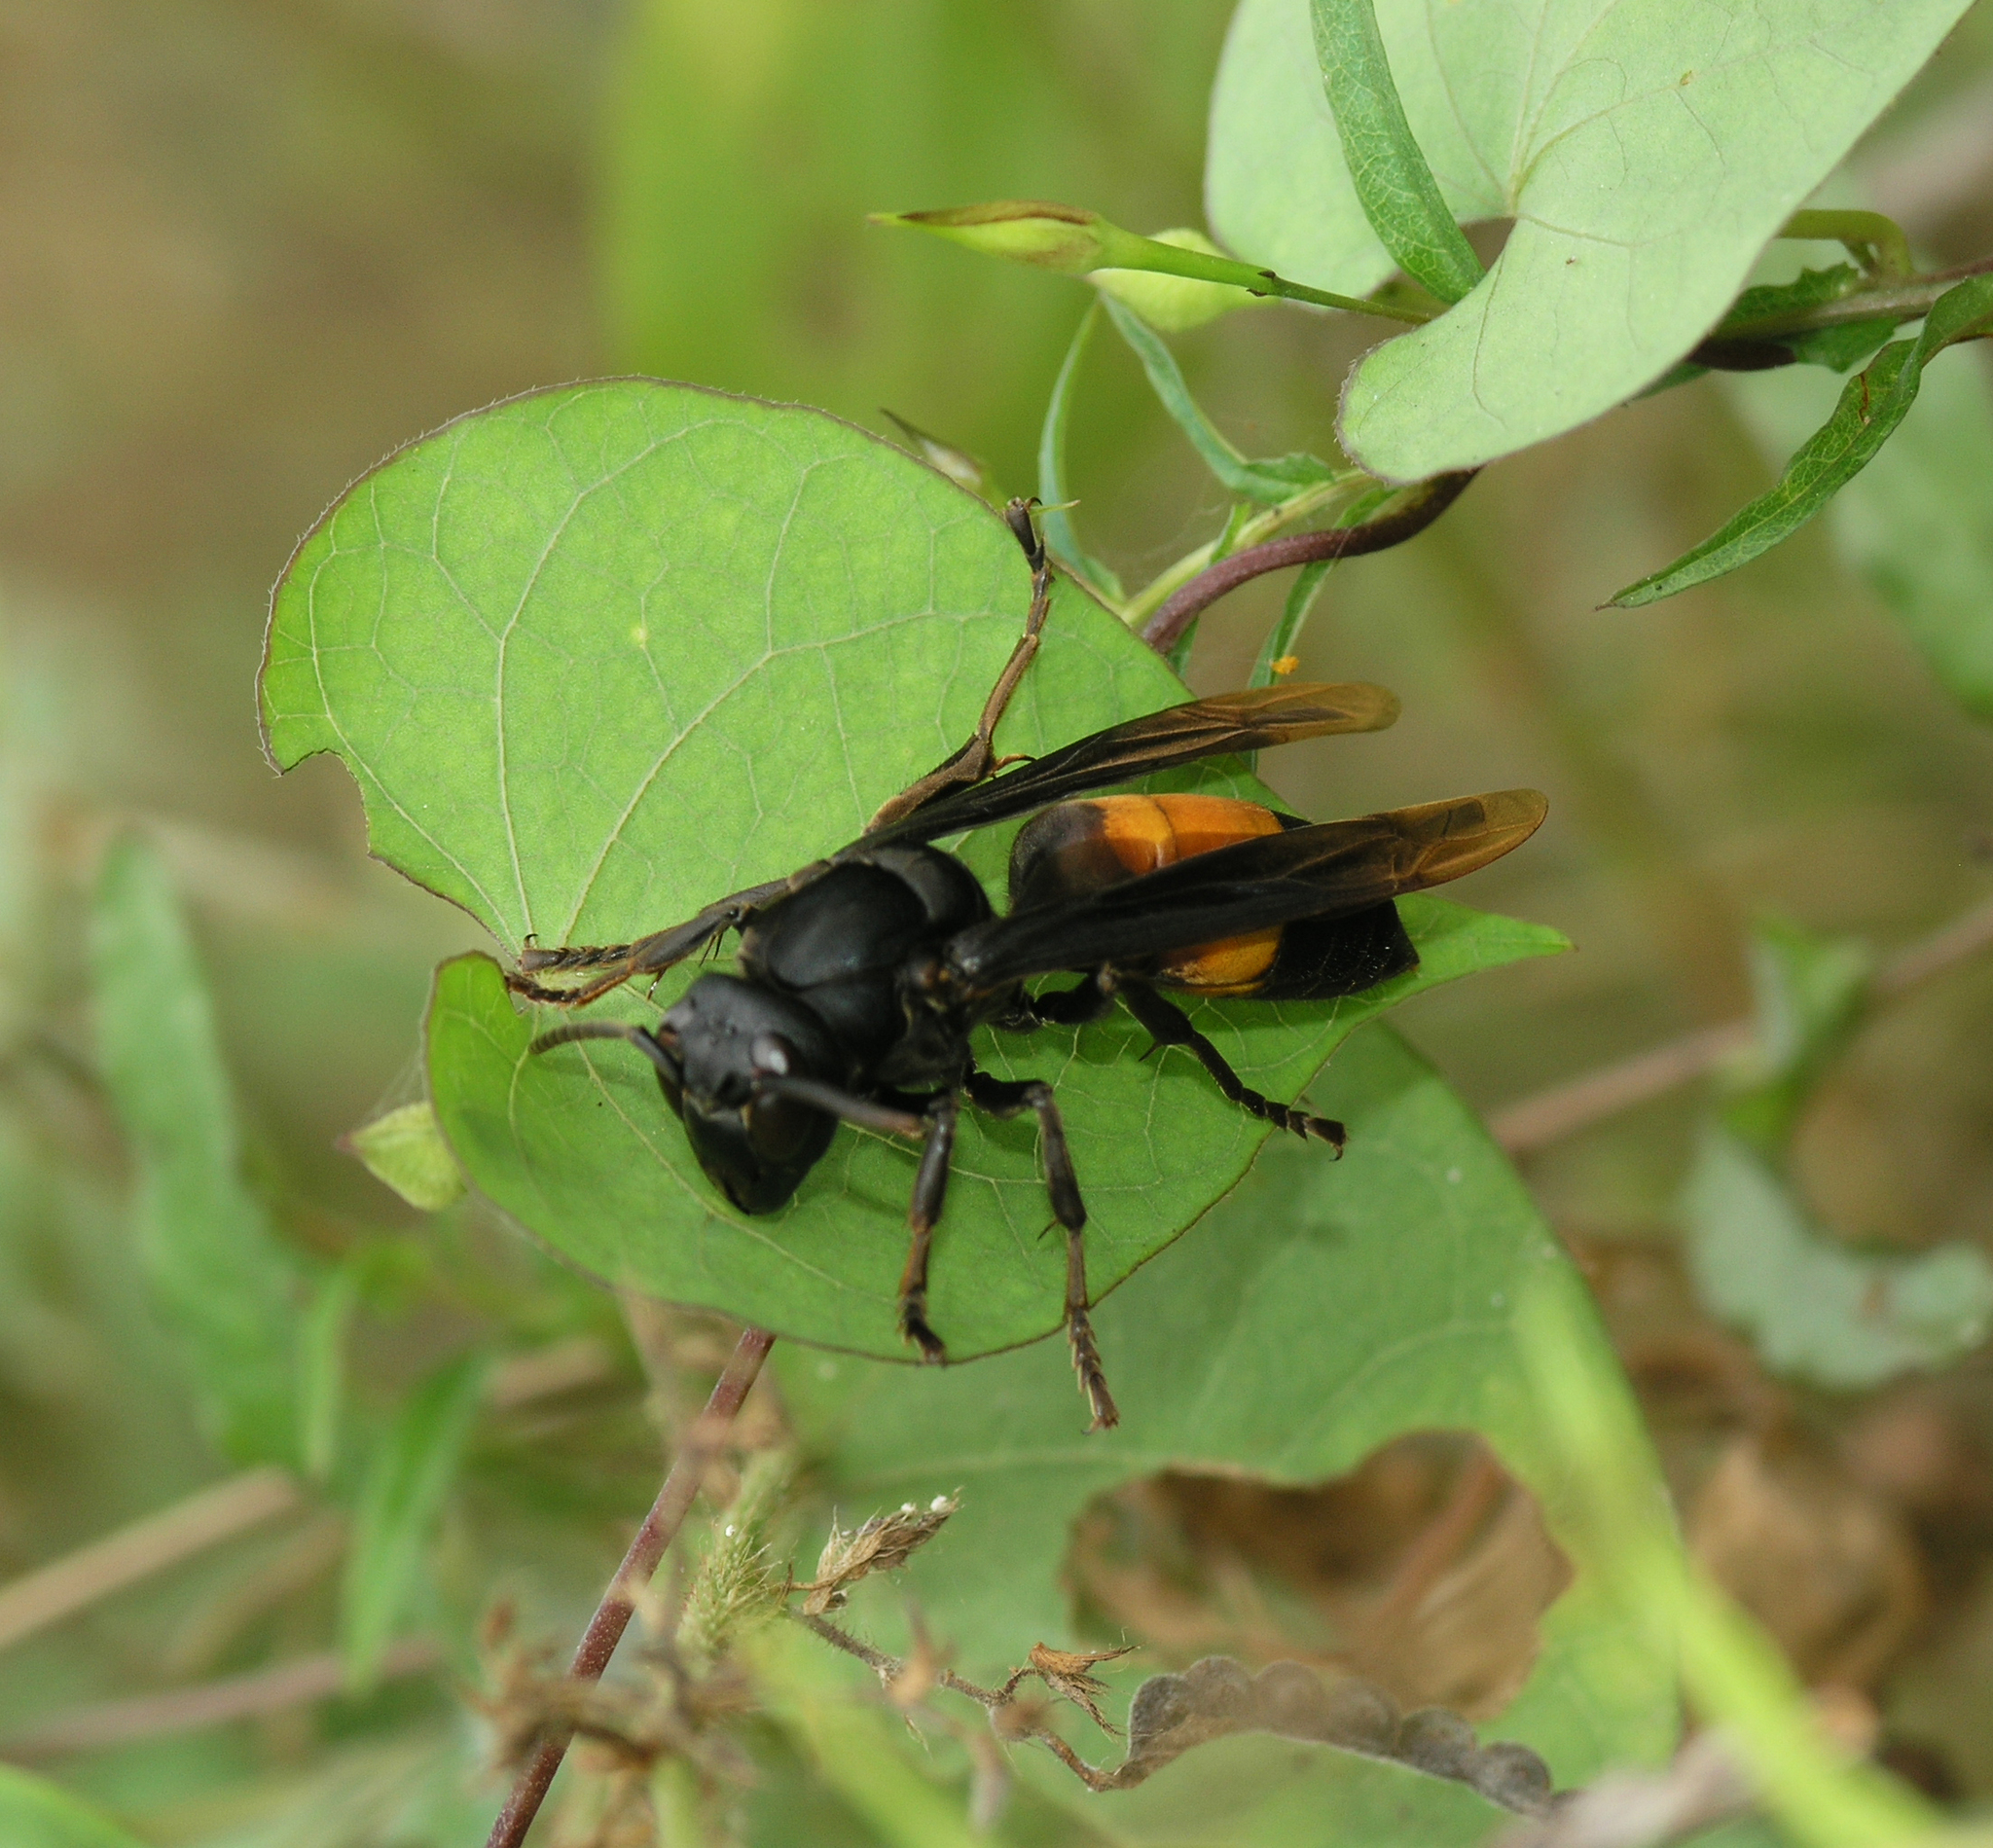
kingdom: Animalia
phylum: Arthropoda
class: Insecta
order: Hymenoptera
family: Vespidae
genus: Vespa
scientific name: Vespa affinis
